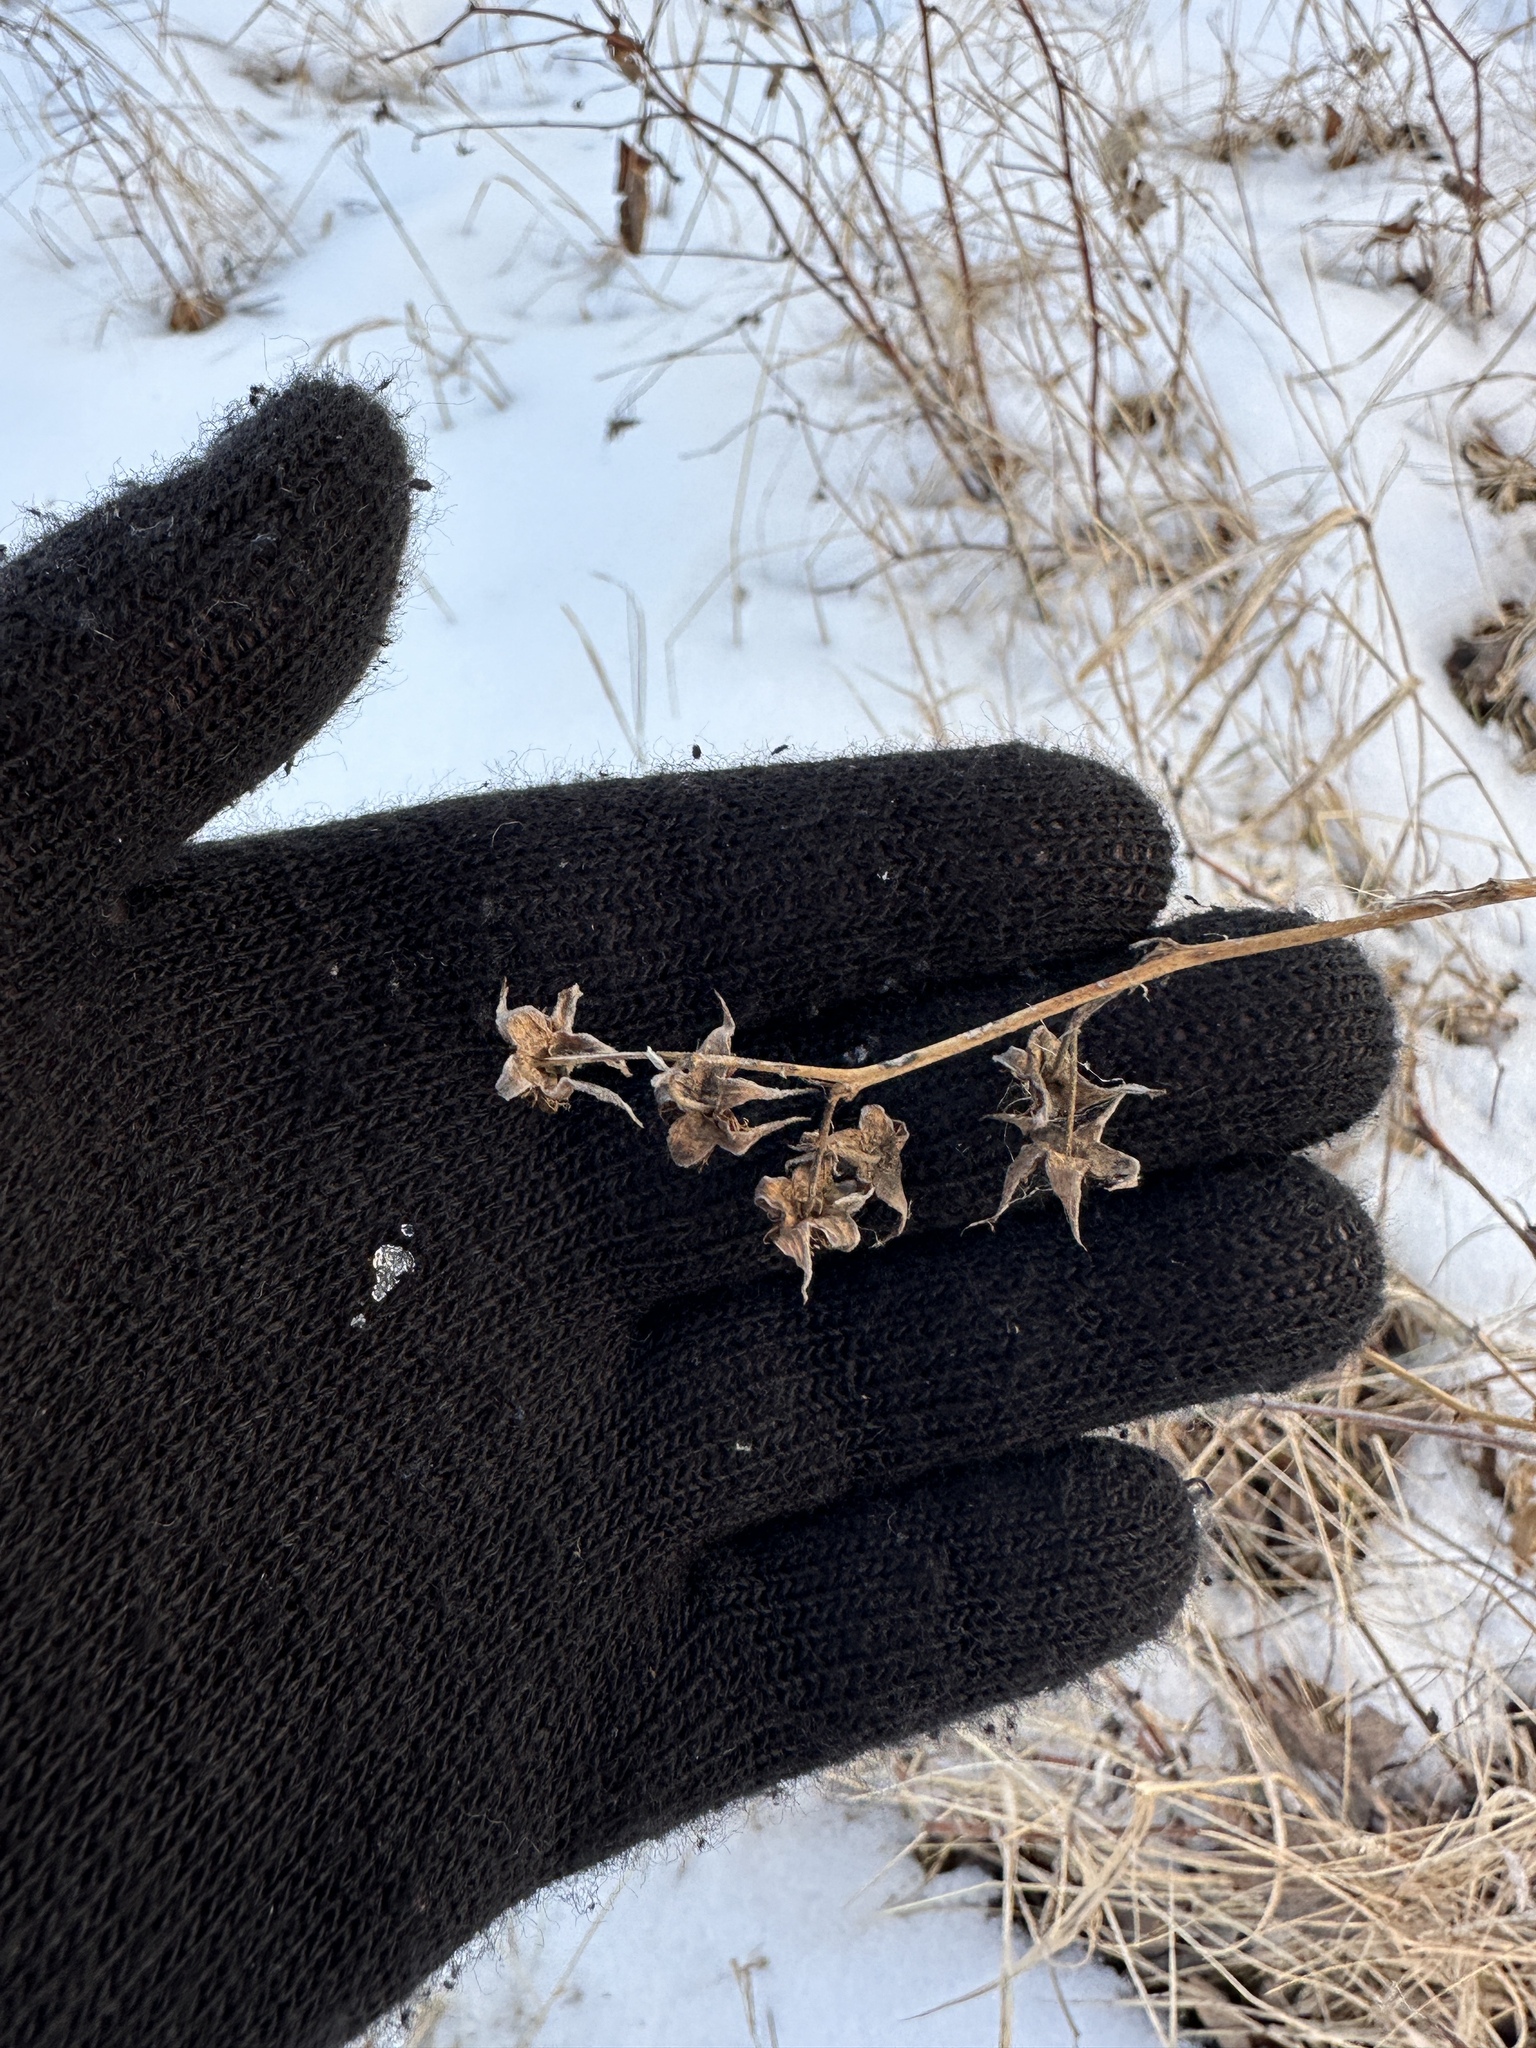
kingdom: Plantae
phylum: Tracheophyta
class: Magnoliopsida
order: Rosales
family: Rosaceae
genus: Rubus
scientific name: Rubus idaeus
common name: Raspberry
